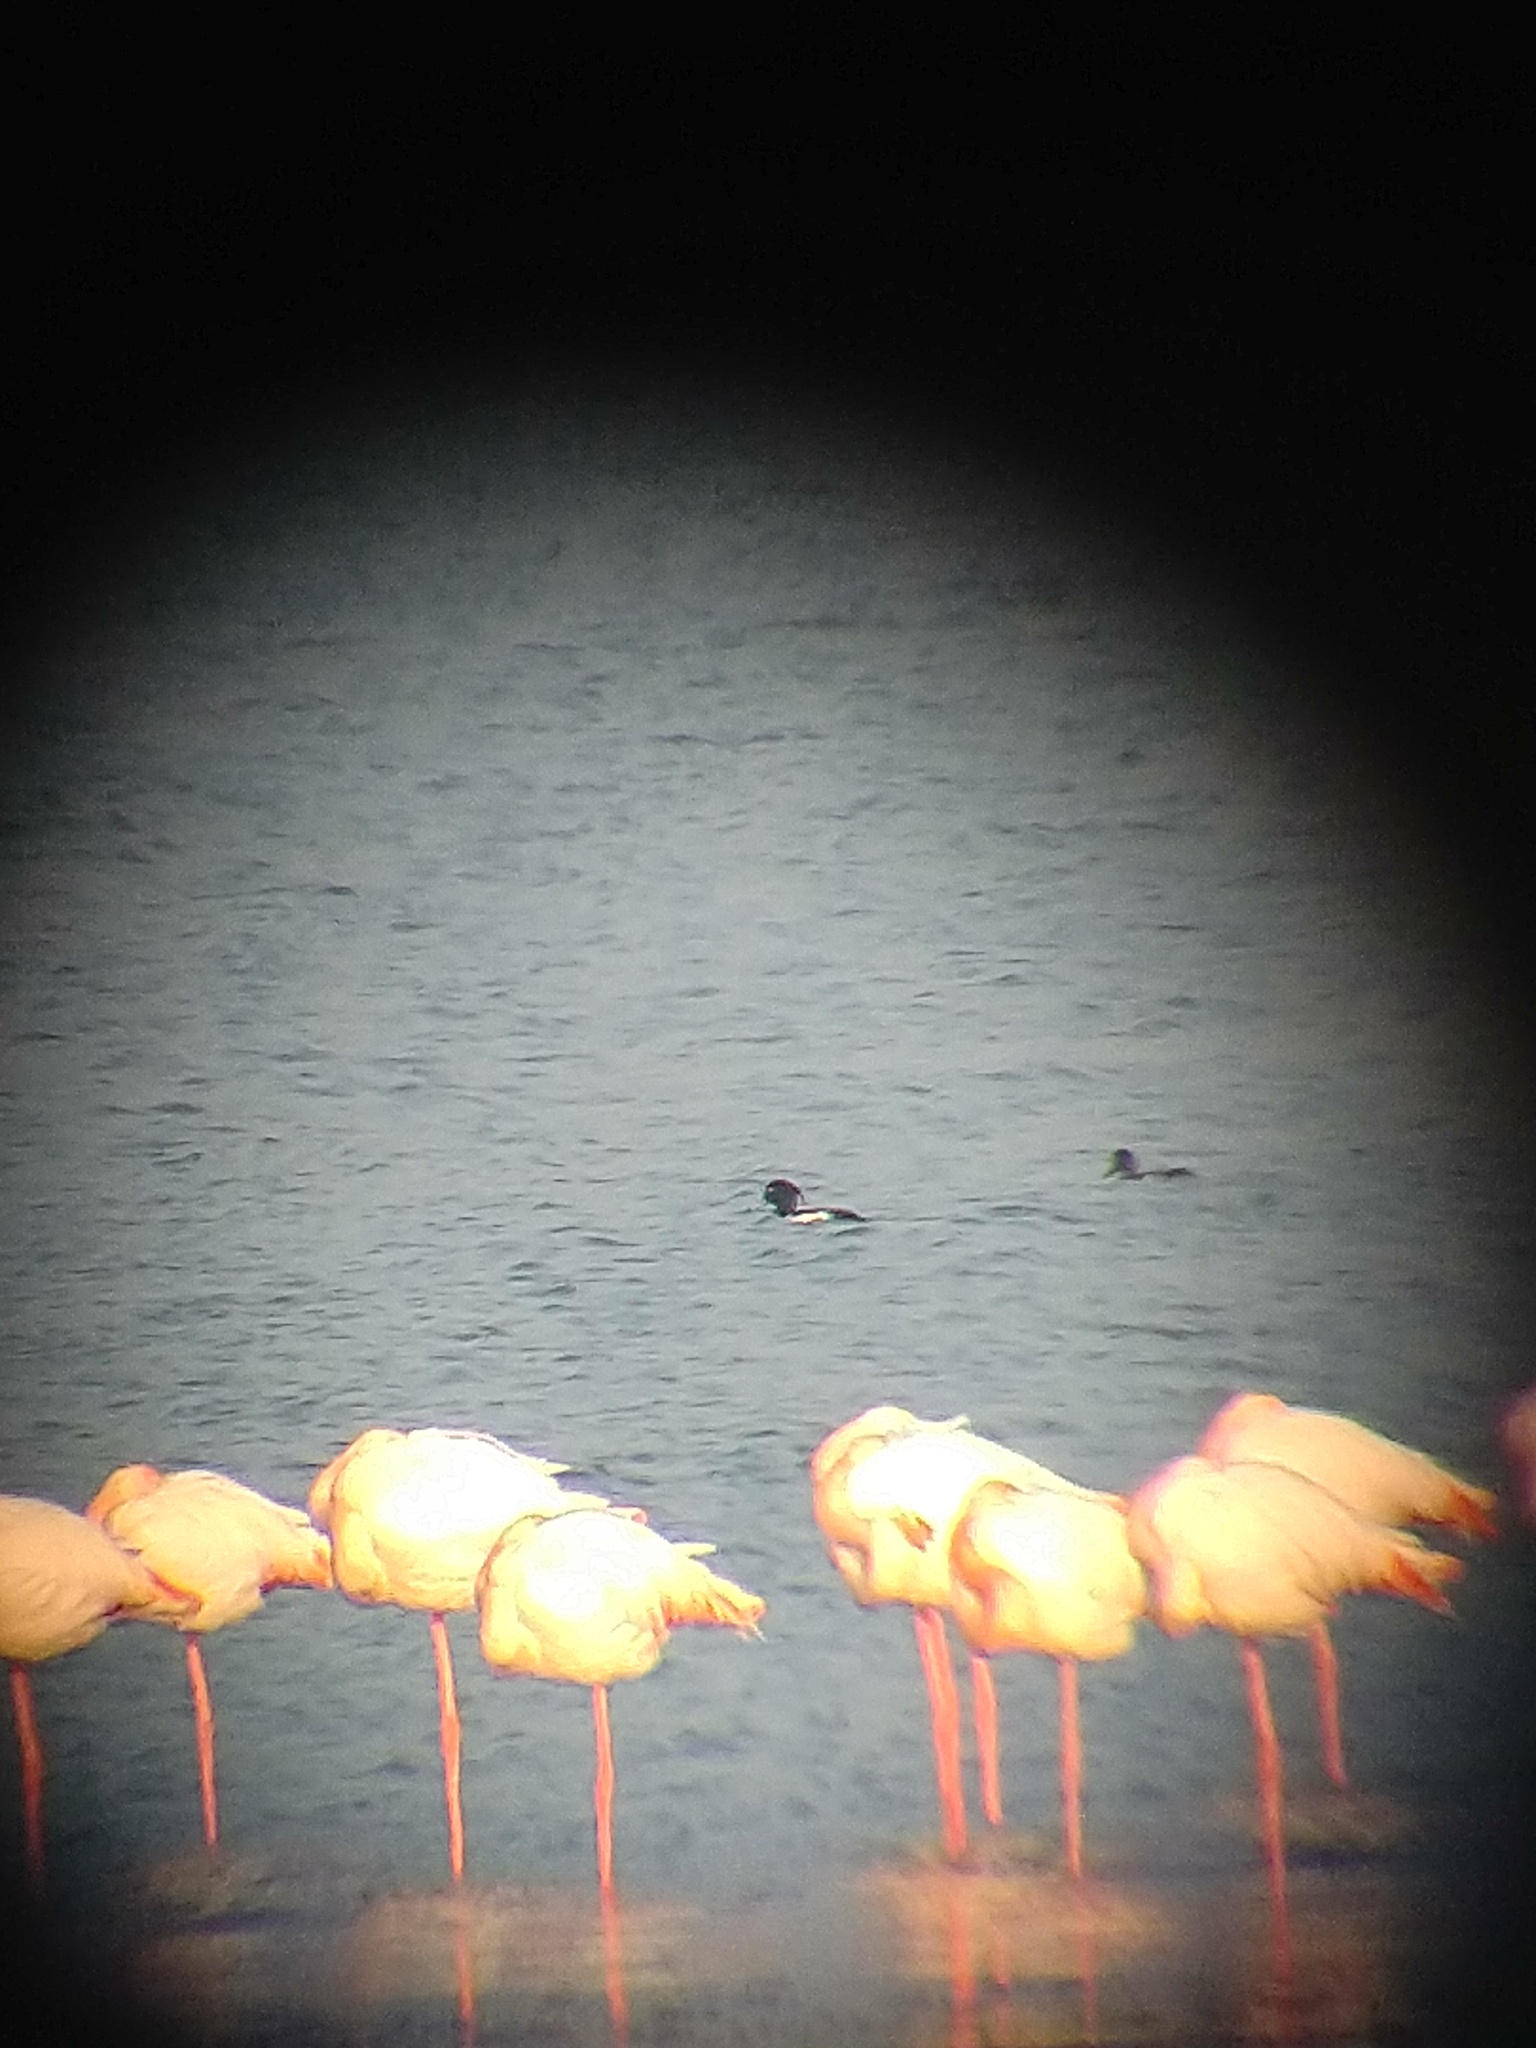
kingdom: Animalia
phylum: Chordata
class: Aves
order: Anseriformes
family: Anatidae
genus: Aythya
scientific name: Aythya fuligula
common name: Tufted duck
